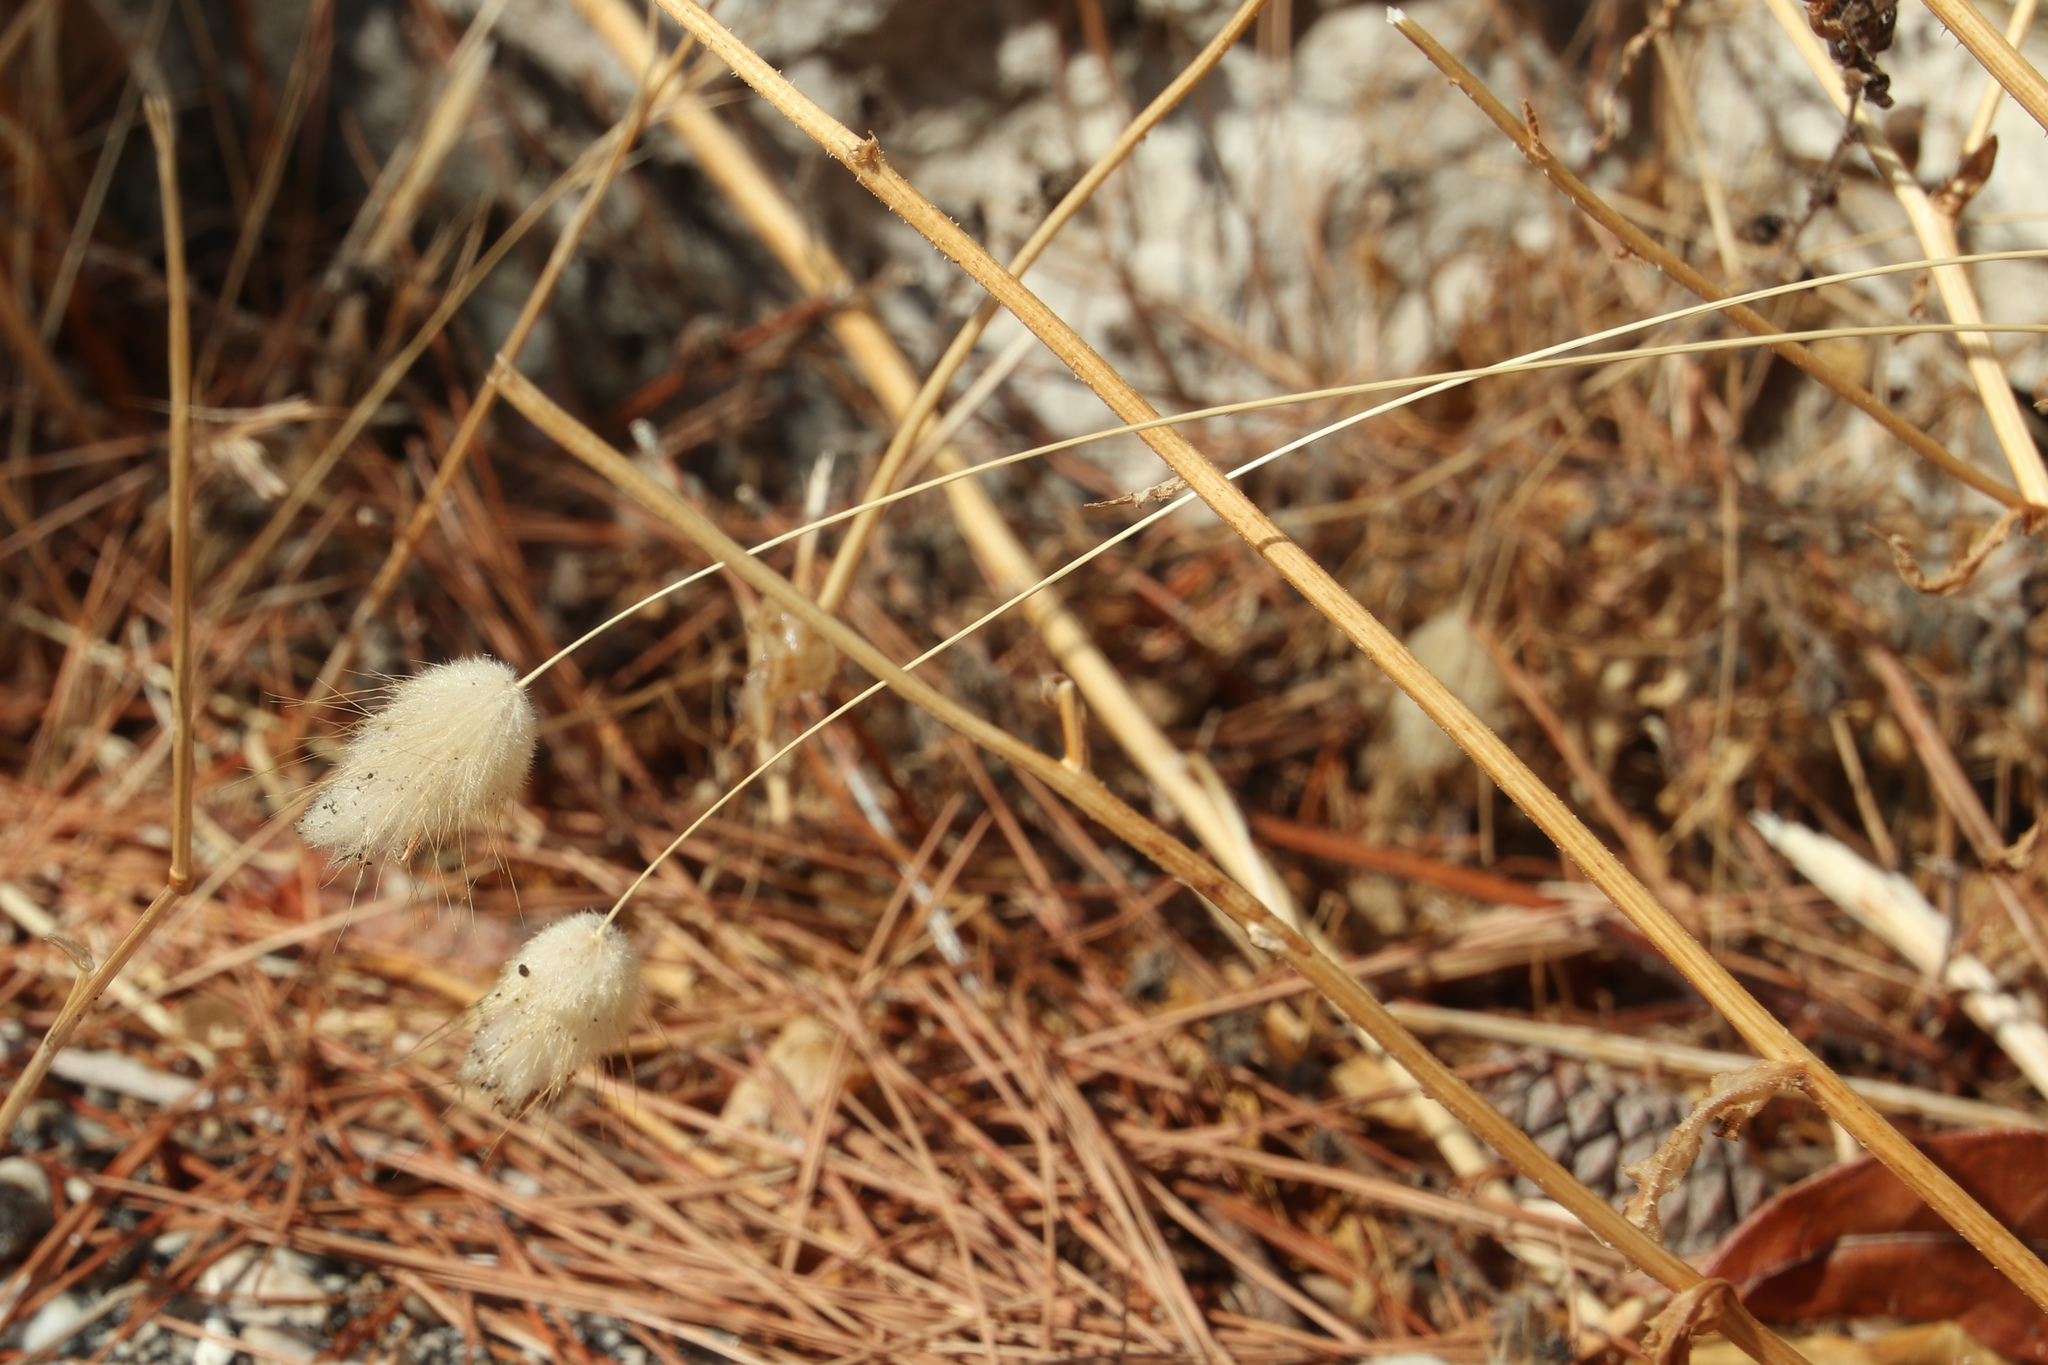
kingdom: Plantae
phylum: Tracheophyta
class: Liliopsida
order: Poales
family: Poaceae
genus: Lagurus
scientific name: Lagurus ovatus
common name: Hare's-tail
